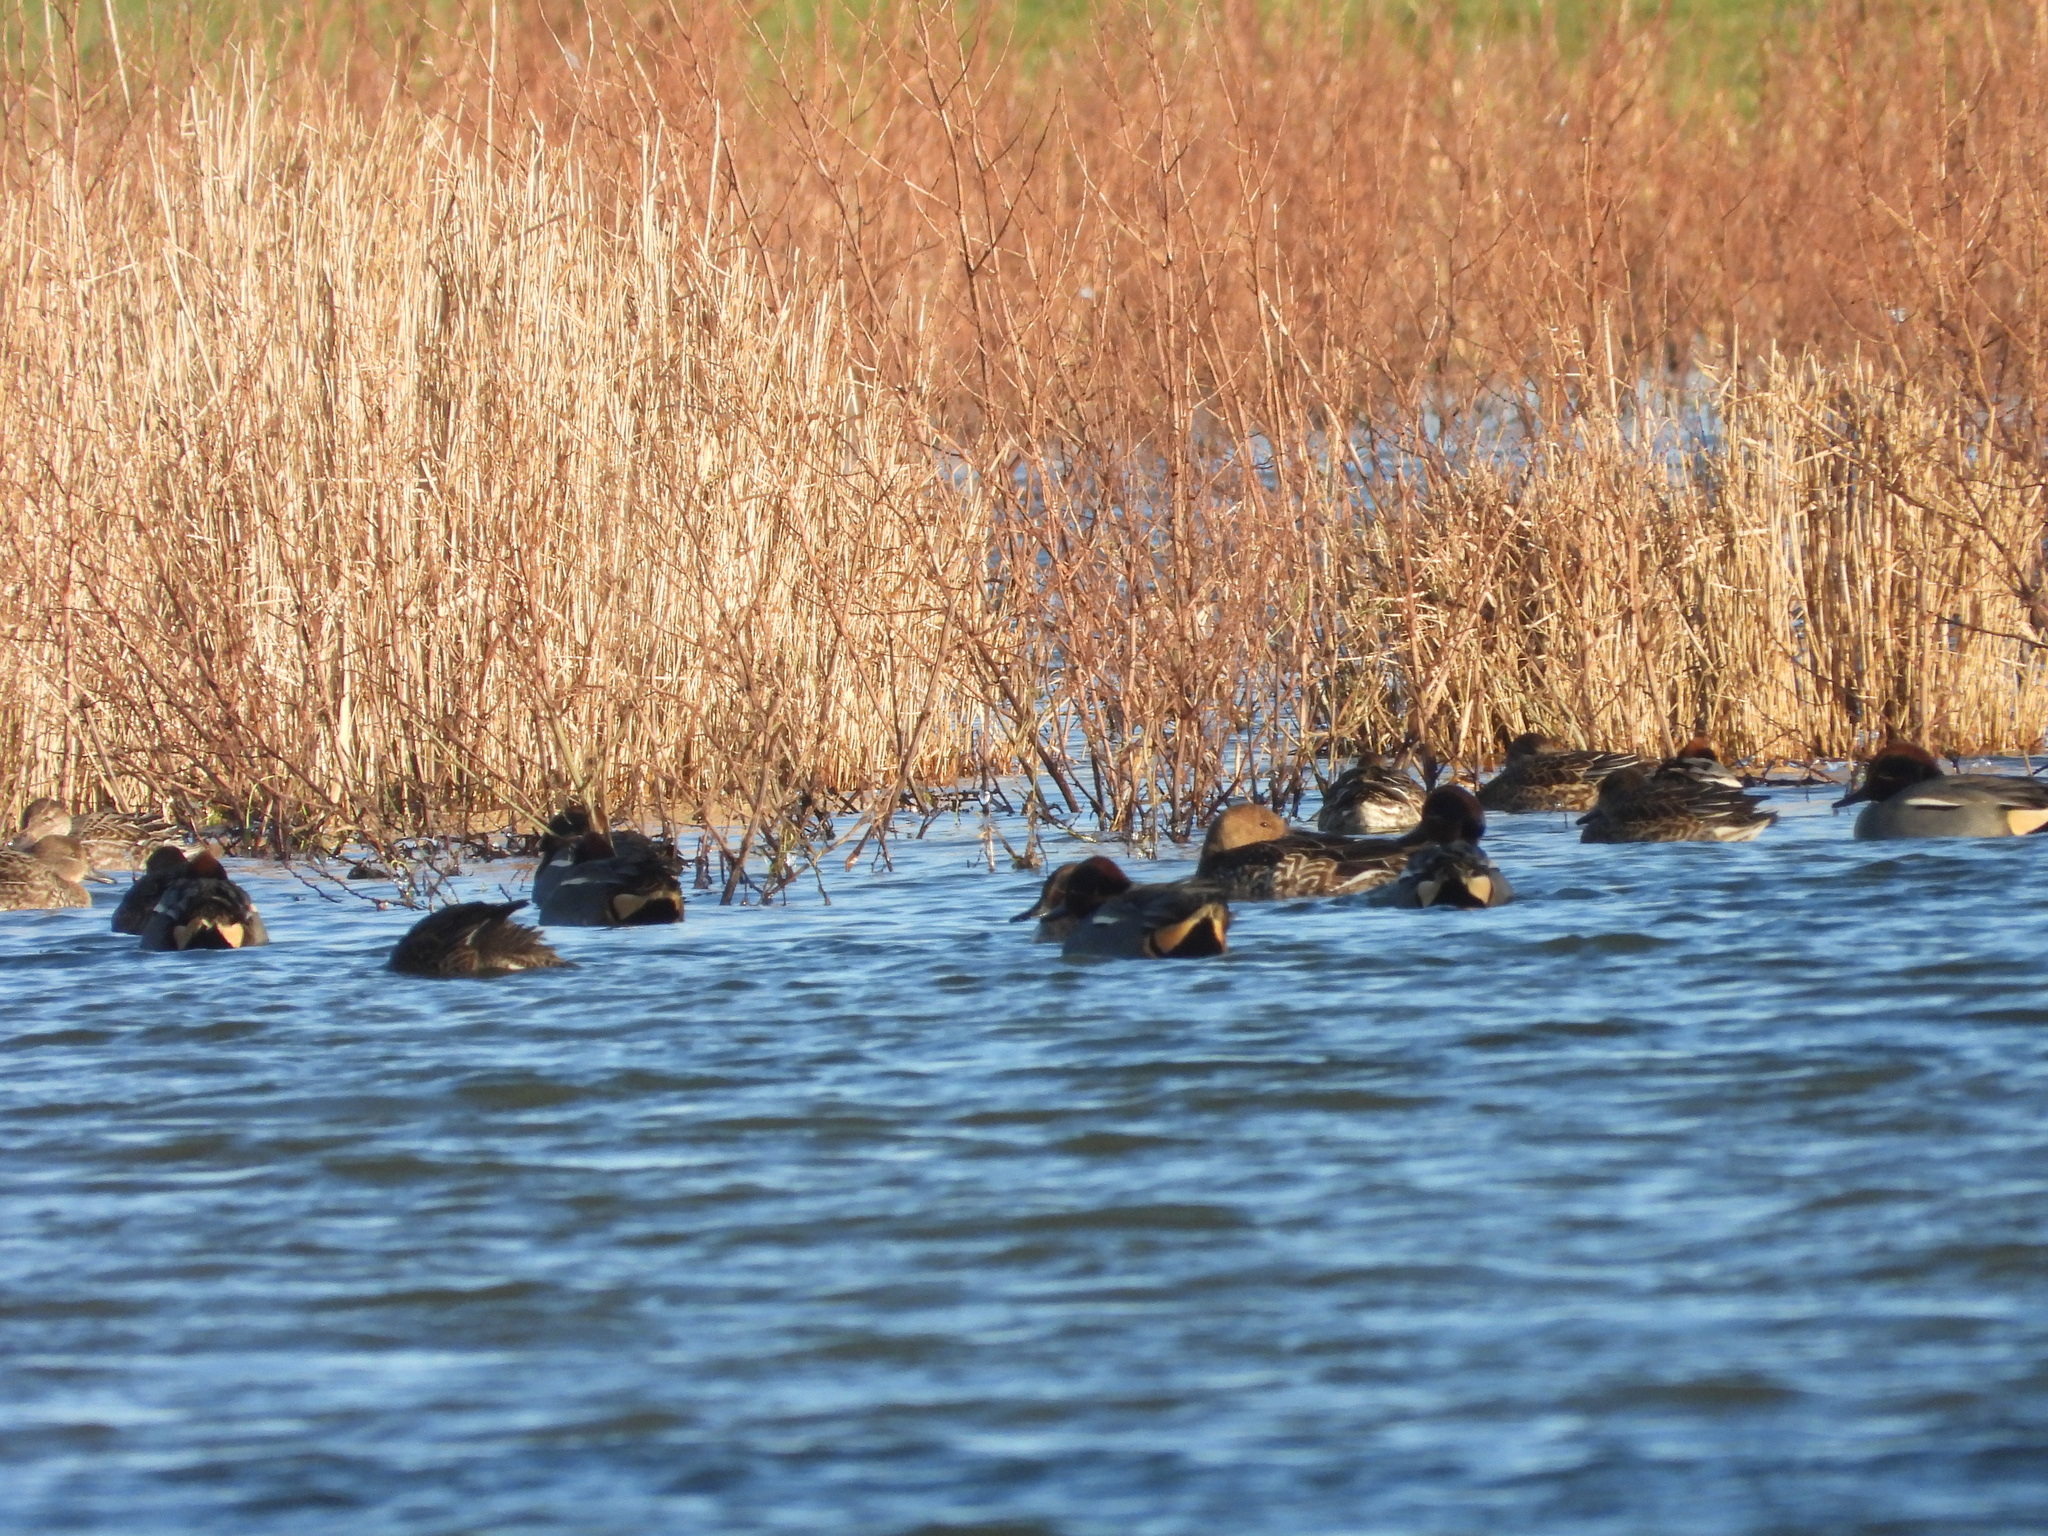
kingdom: Animalia
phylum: Chordata
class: Aves
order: Anseriformes
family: Anatidae
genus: Anas
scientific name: Anas crecca
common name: Eurasian teal
